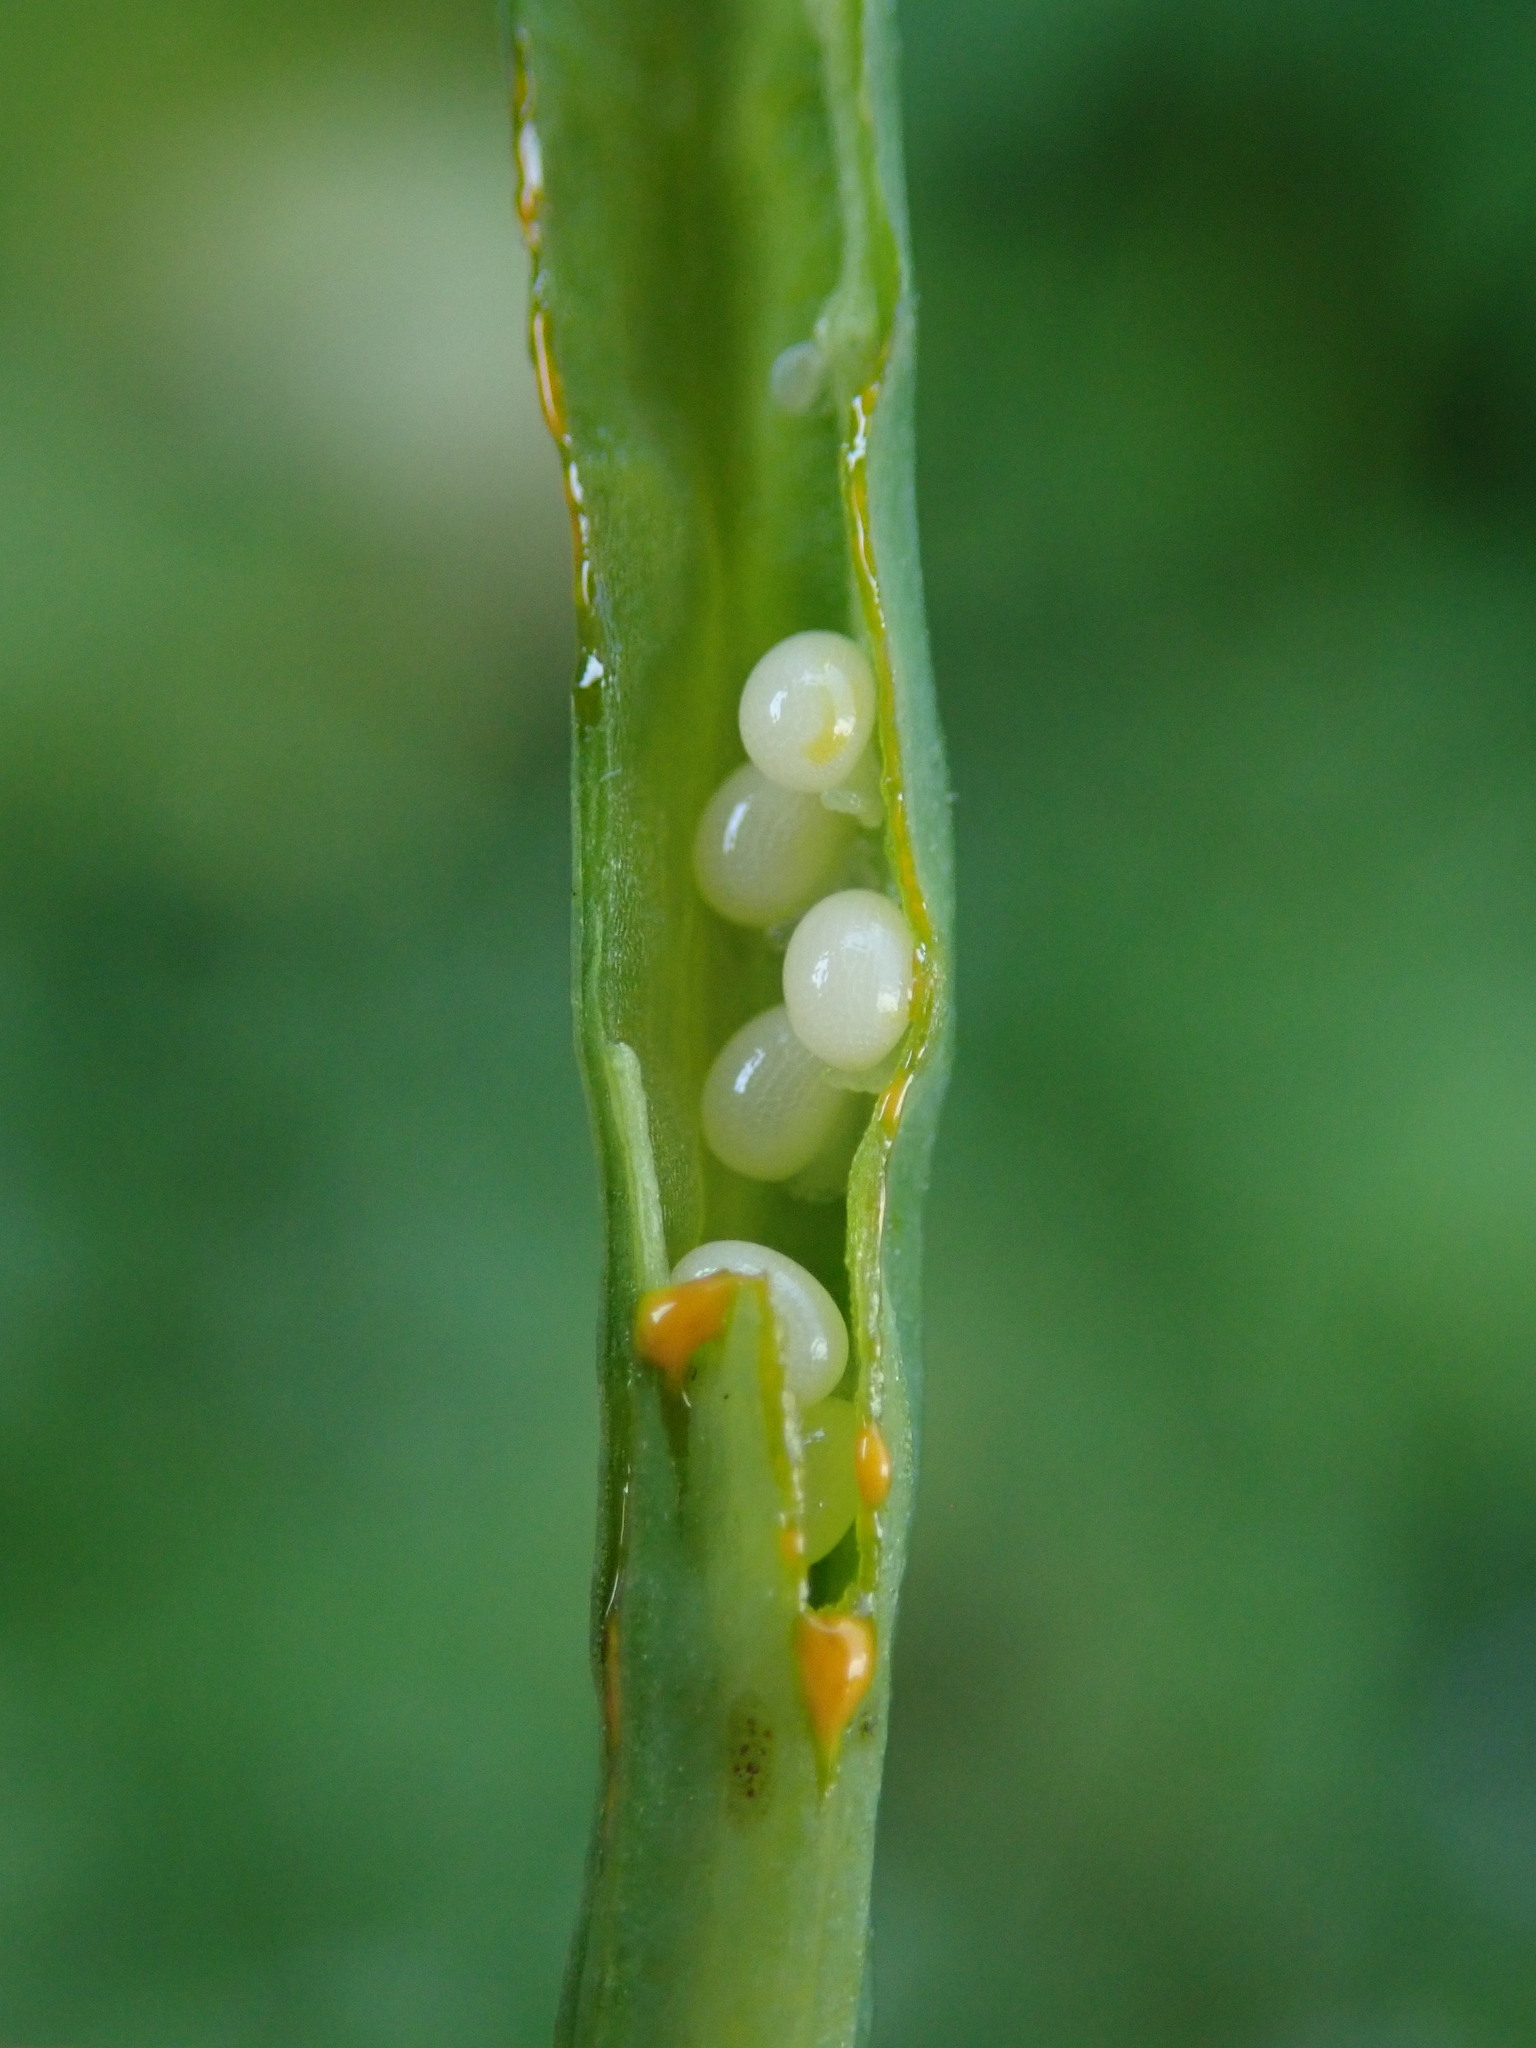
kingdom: Plantae
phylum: Tracheophyta
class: Magnoliopsida
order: Ranunculales
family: Papaveraceae
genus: Chelidonium
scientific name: Chelidonium majus
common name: Greater celandine
